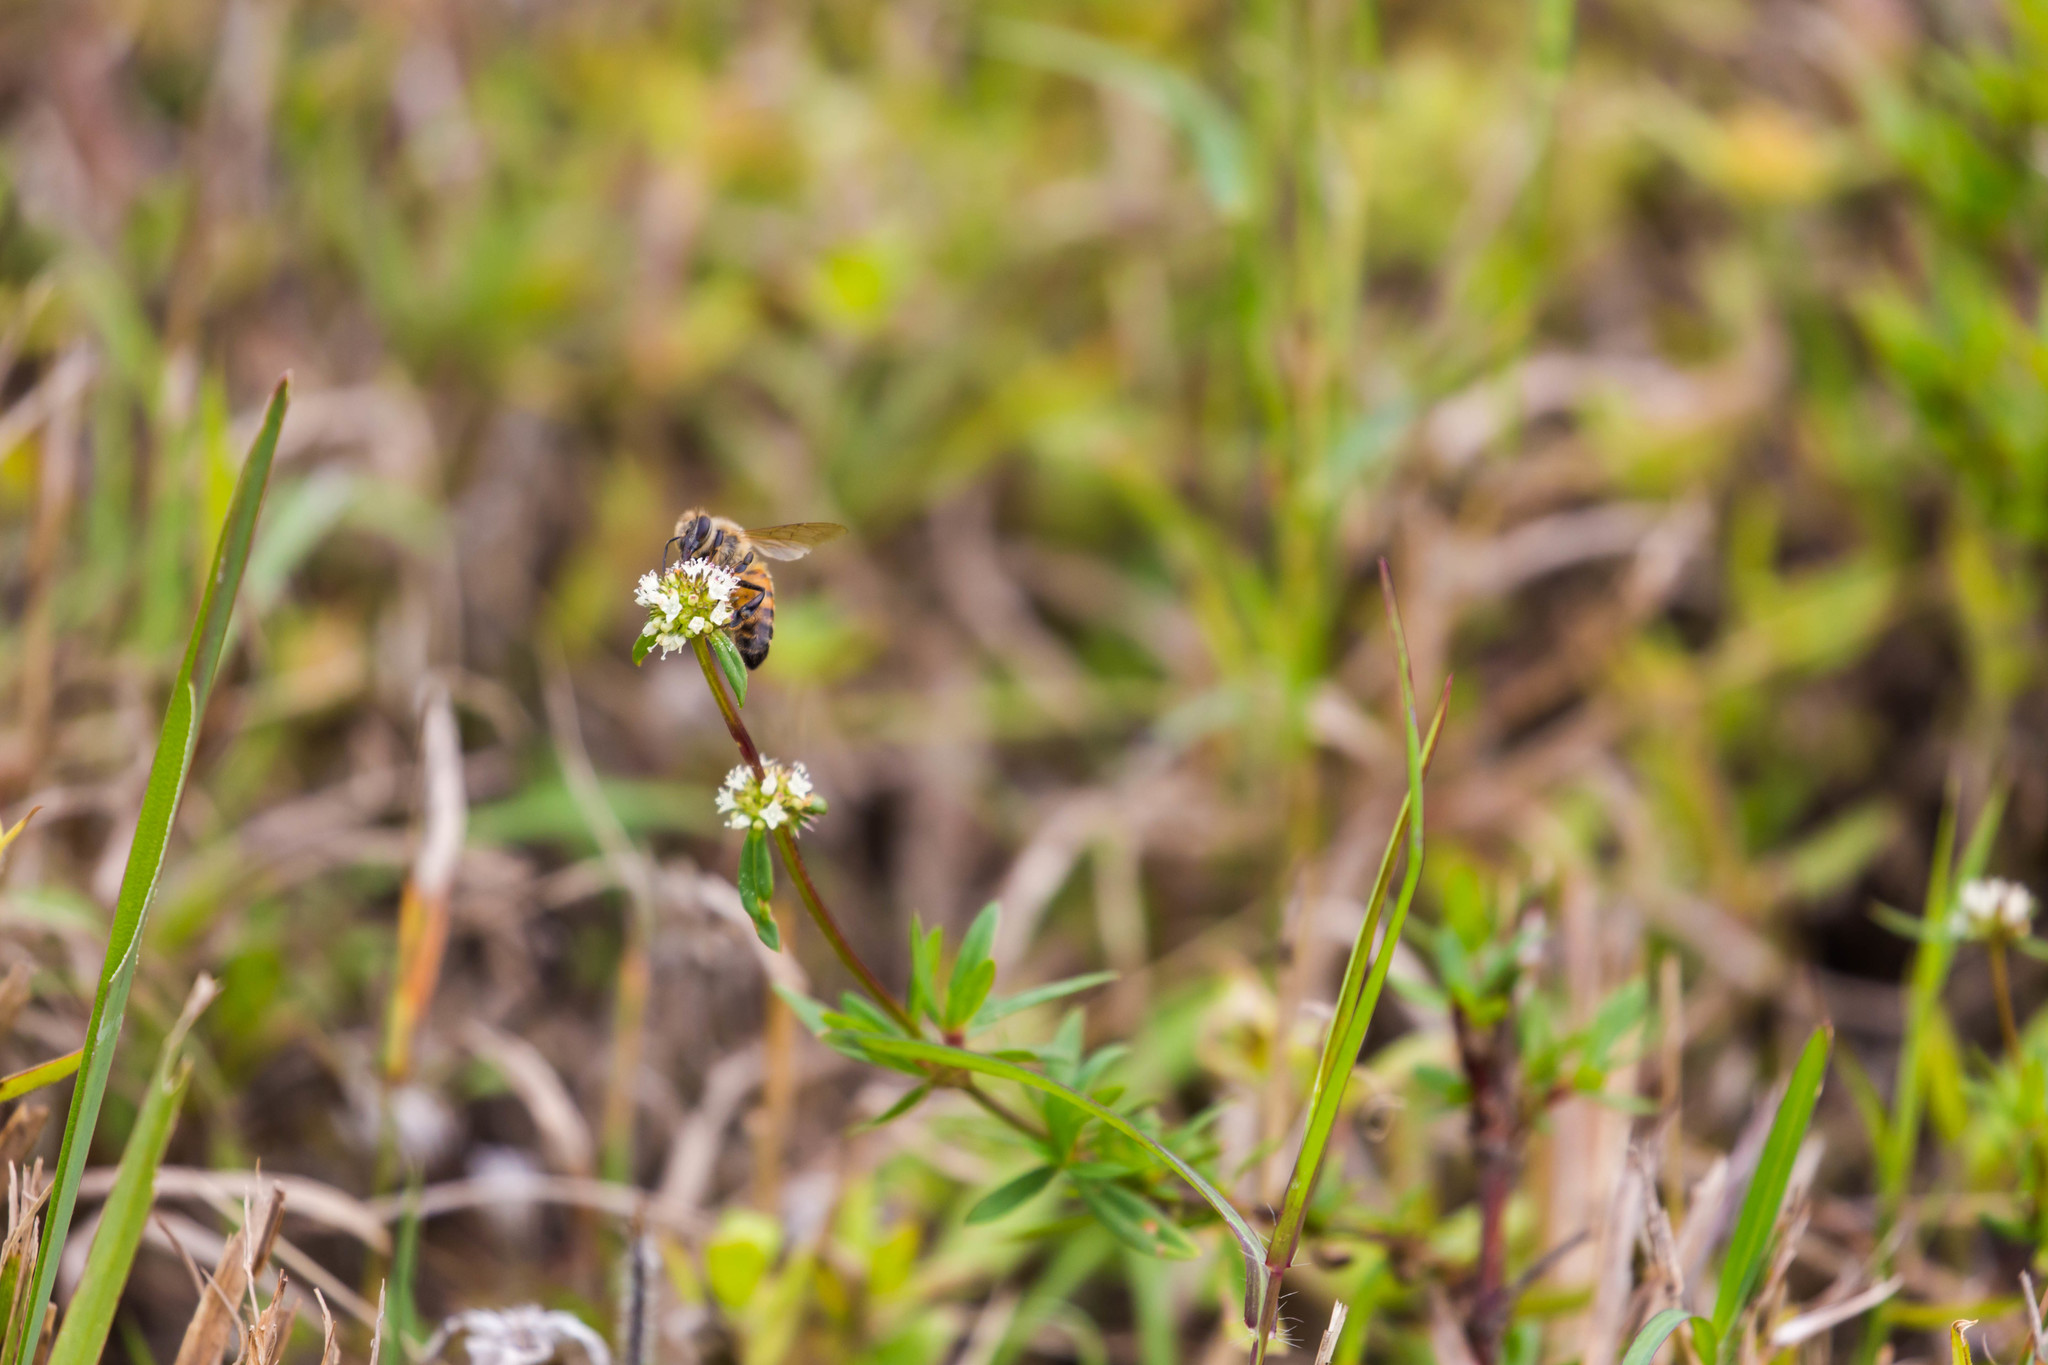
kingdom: Animalia
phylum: Arthropoda
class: Insecta
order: Hymenoptera
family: Apidae
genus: Apis
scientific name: Apis mellifera
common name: Honey bee
